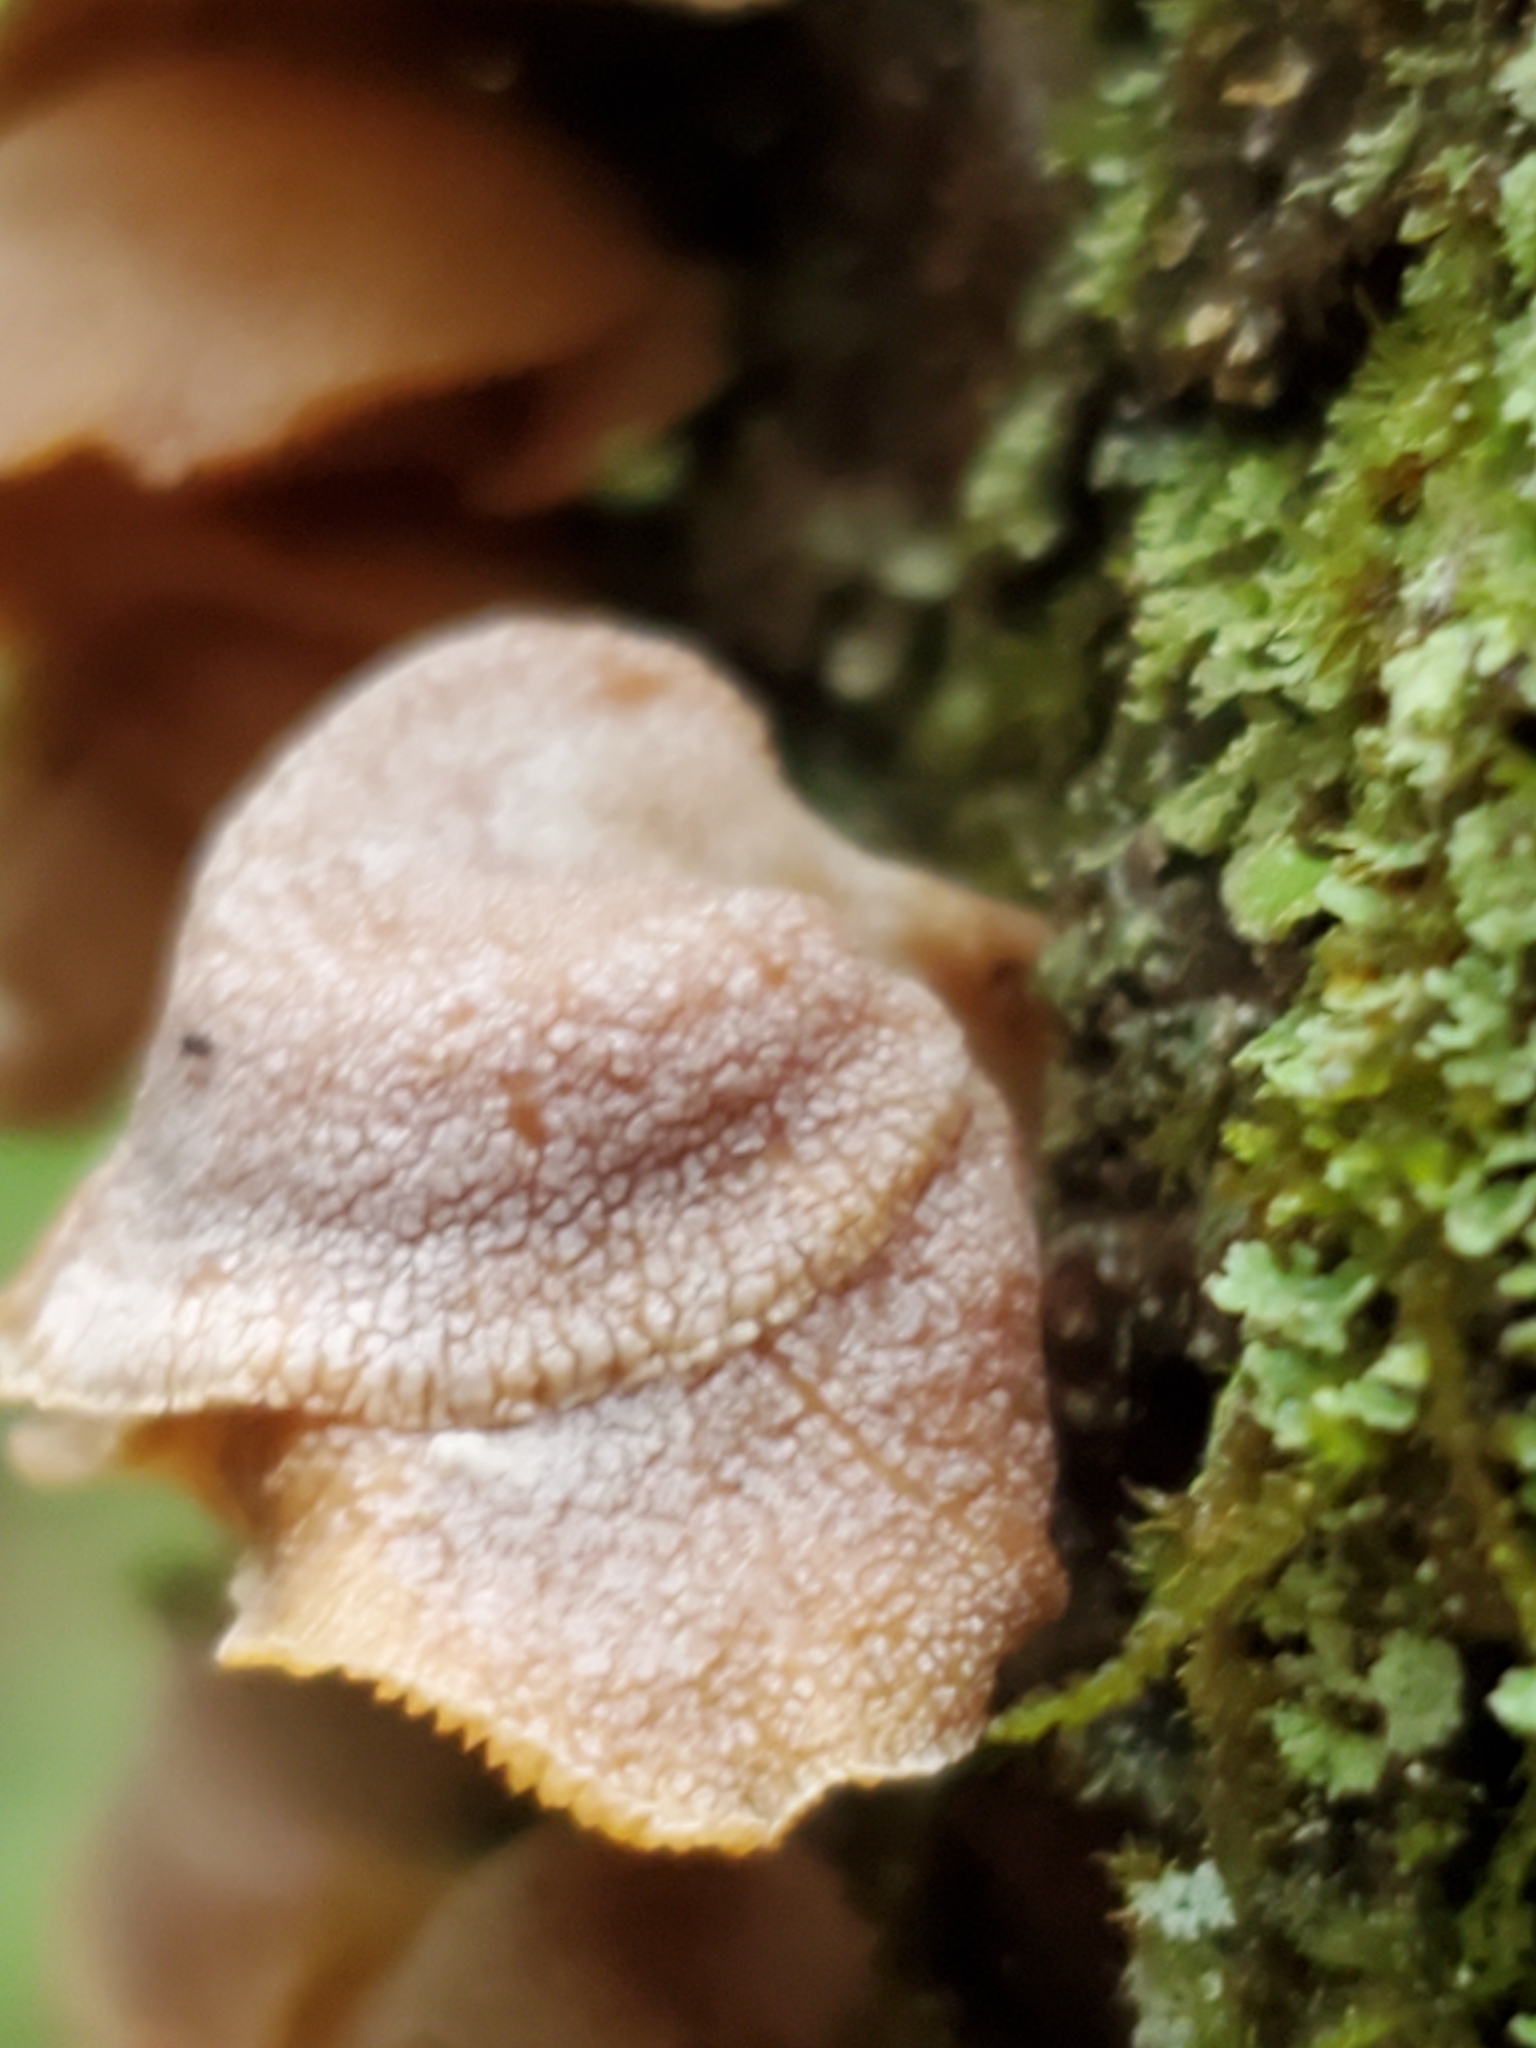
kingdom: Fungi
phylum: Basidiomycota
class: Agaricomycetes
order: Agaricales
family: Mycenaceae
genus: Panellus
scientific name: Panellus stipticus
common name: Bitter oysterling
